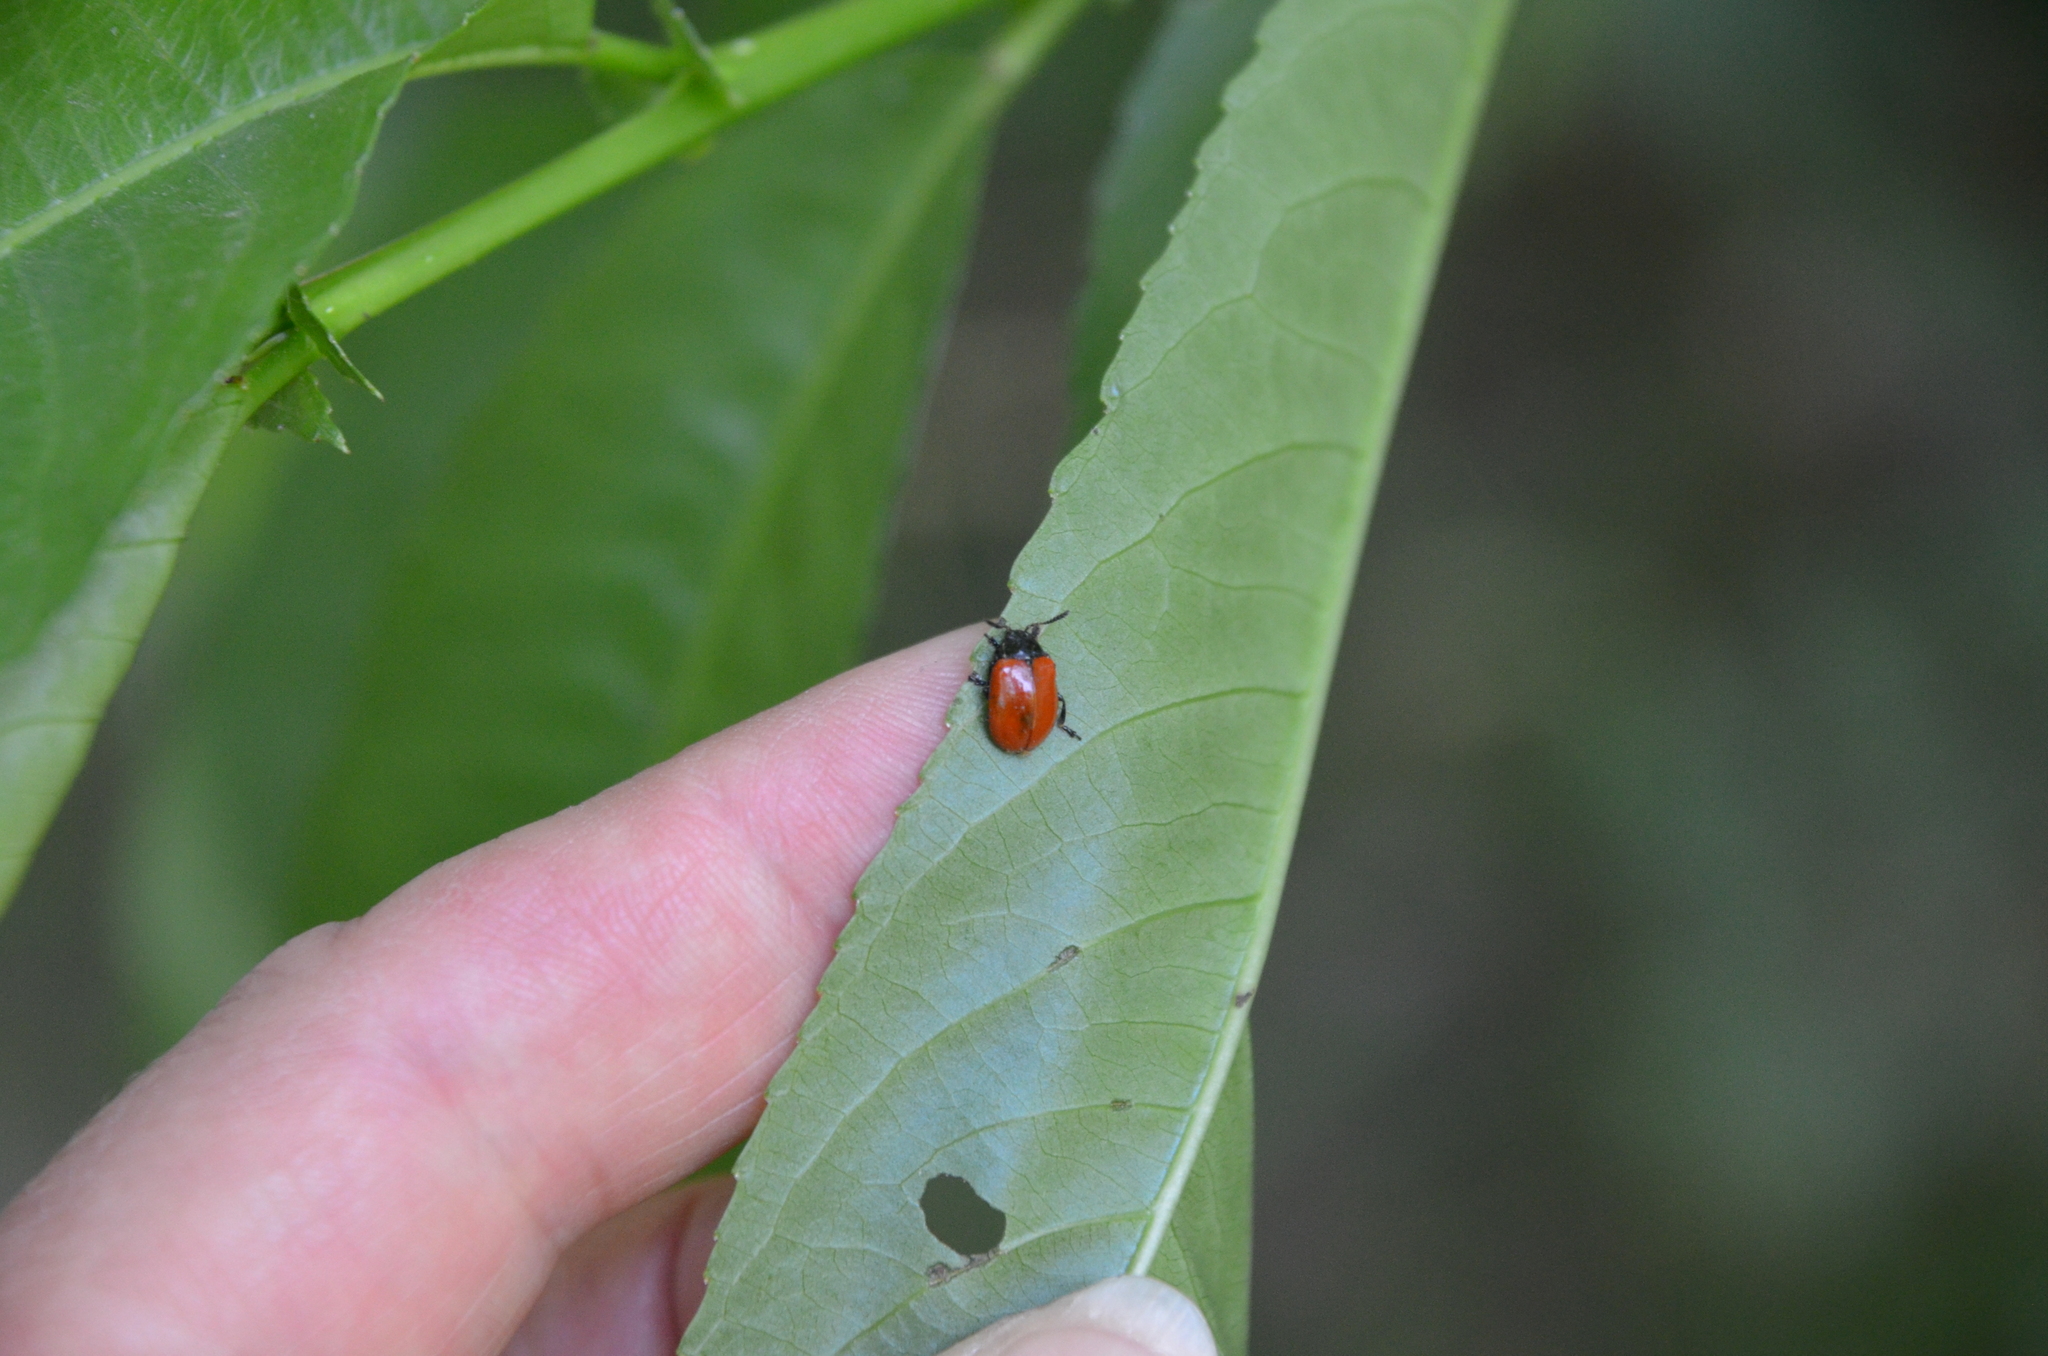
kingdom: Animalia
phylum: Arthropoda
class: Insecta
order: Coleoptera
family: Chrysomelidae
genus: Plagiodera
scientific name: Plagiodera
